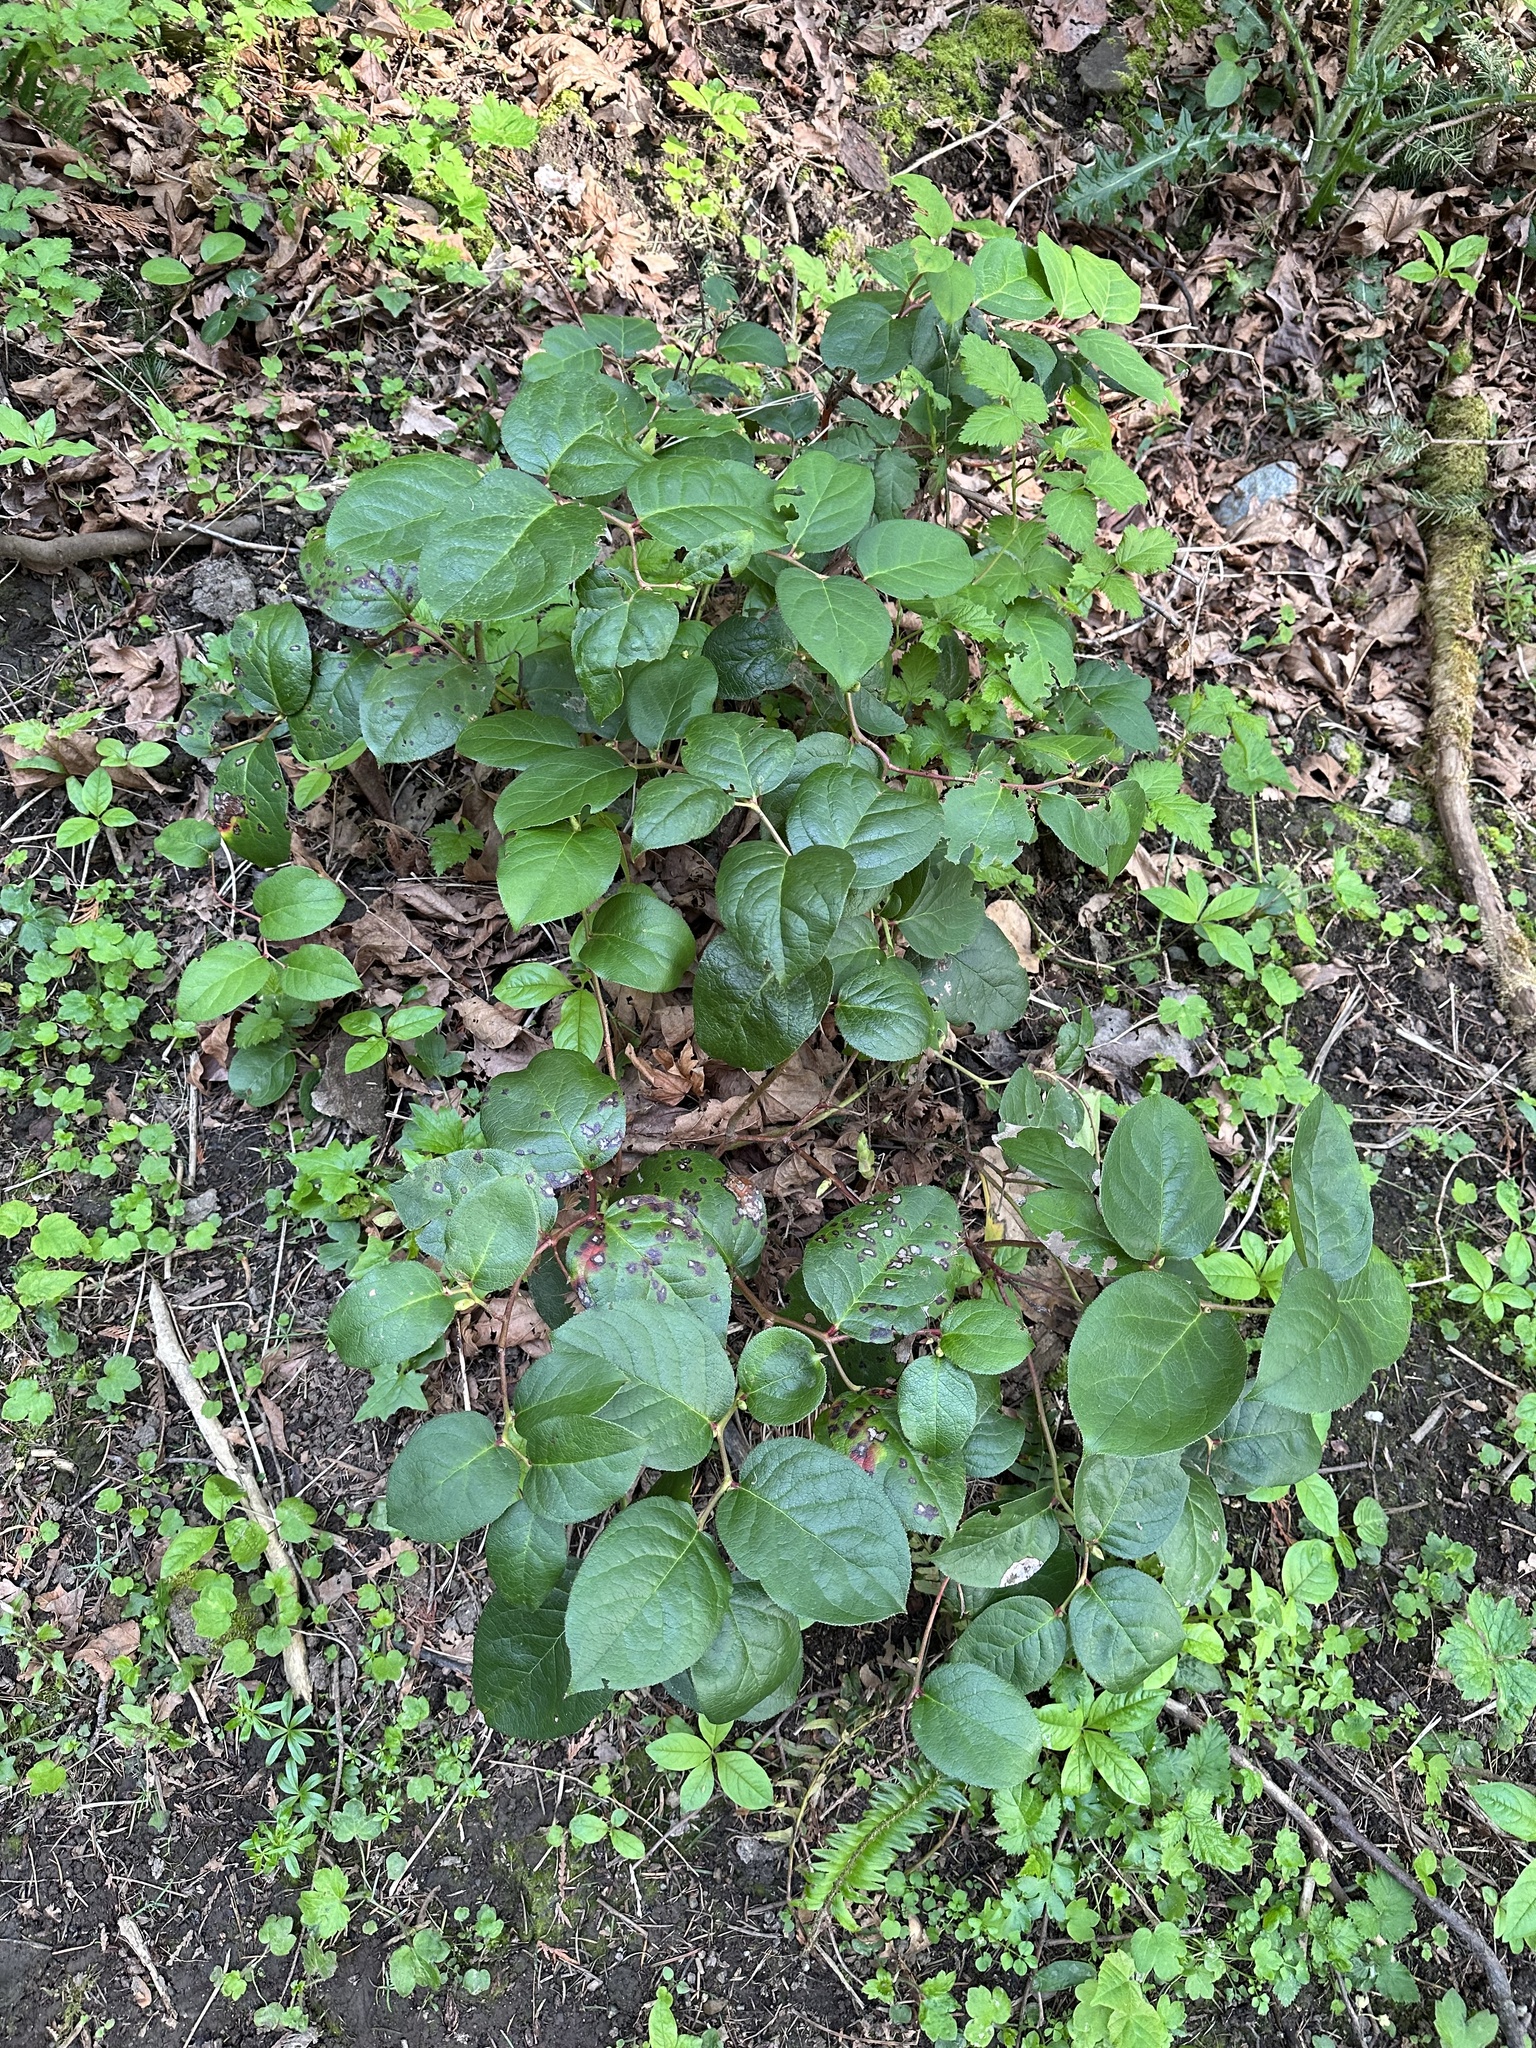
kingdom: Plantae
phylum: Tracheophyta
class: Magnoliopsida
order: Ericales
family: Ericaceae
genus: Gaultheria
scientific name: Gaultheria shallon
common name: Shallon
